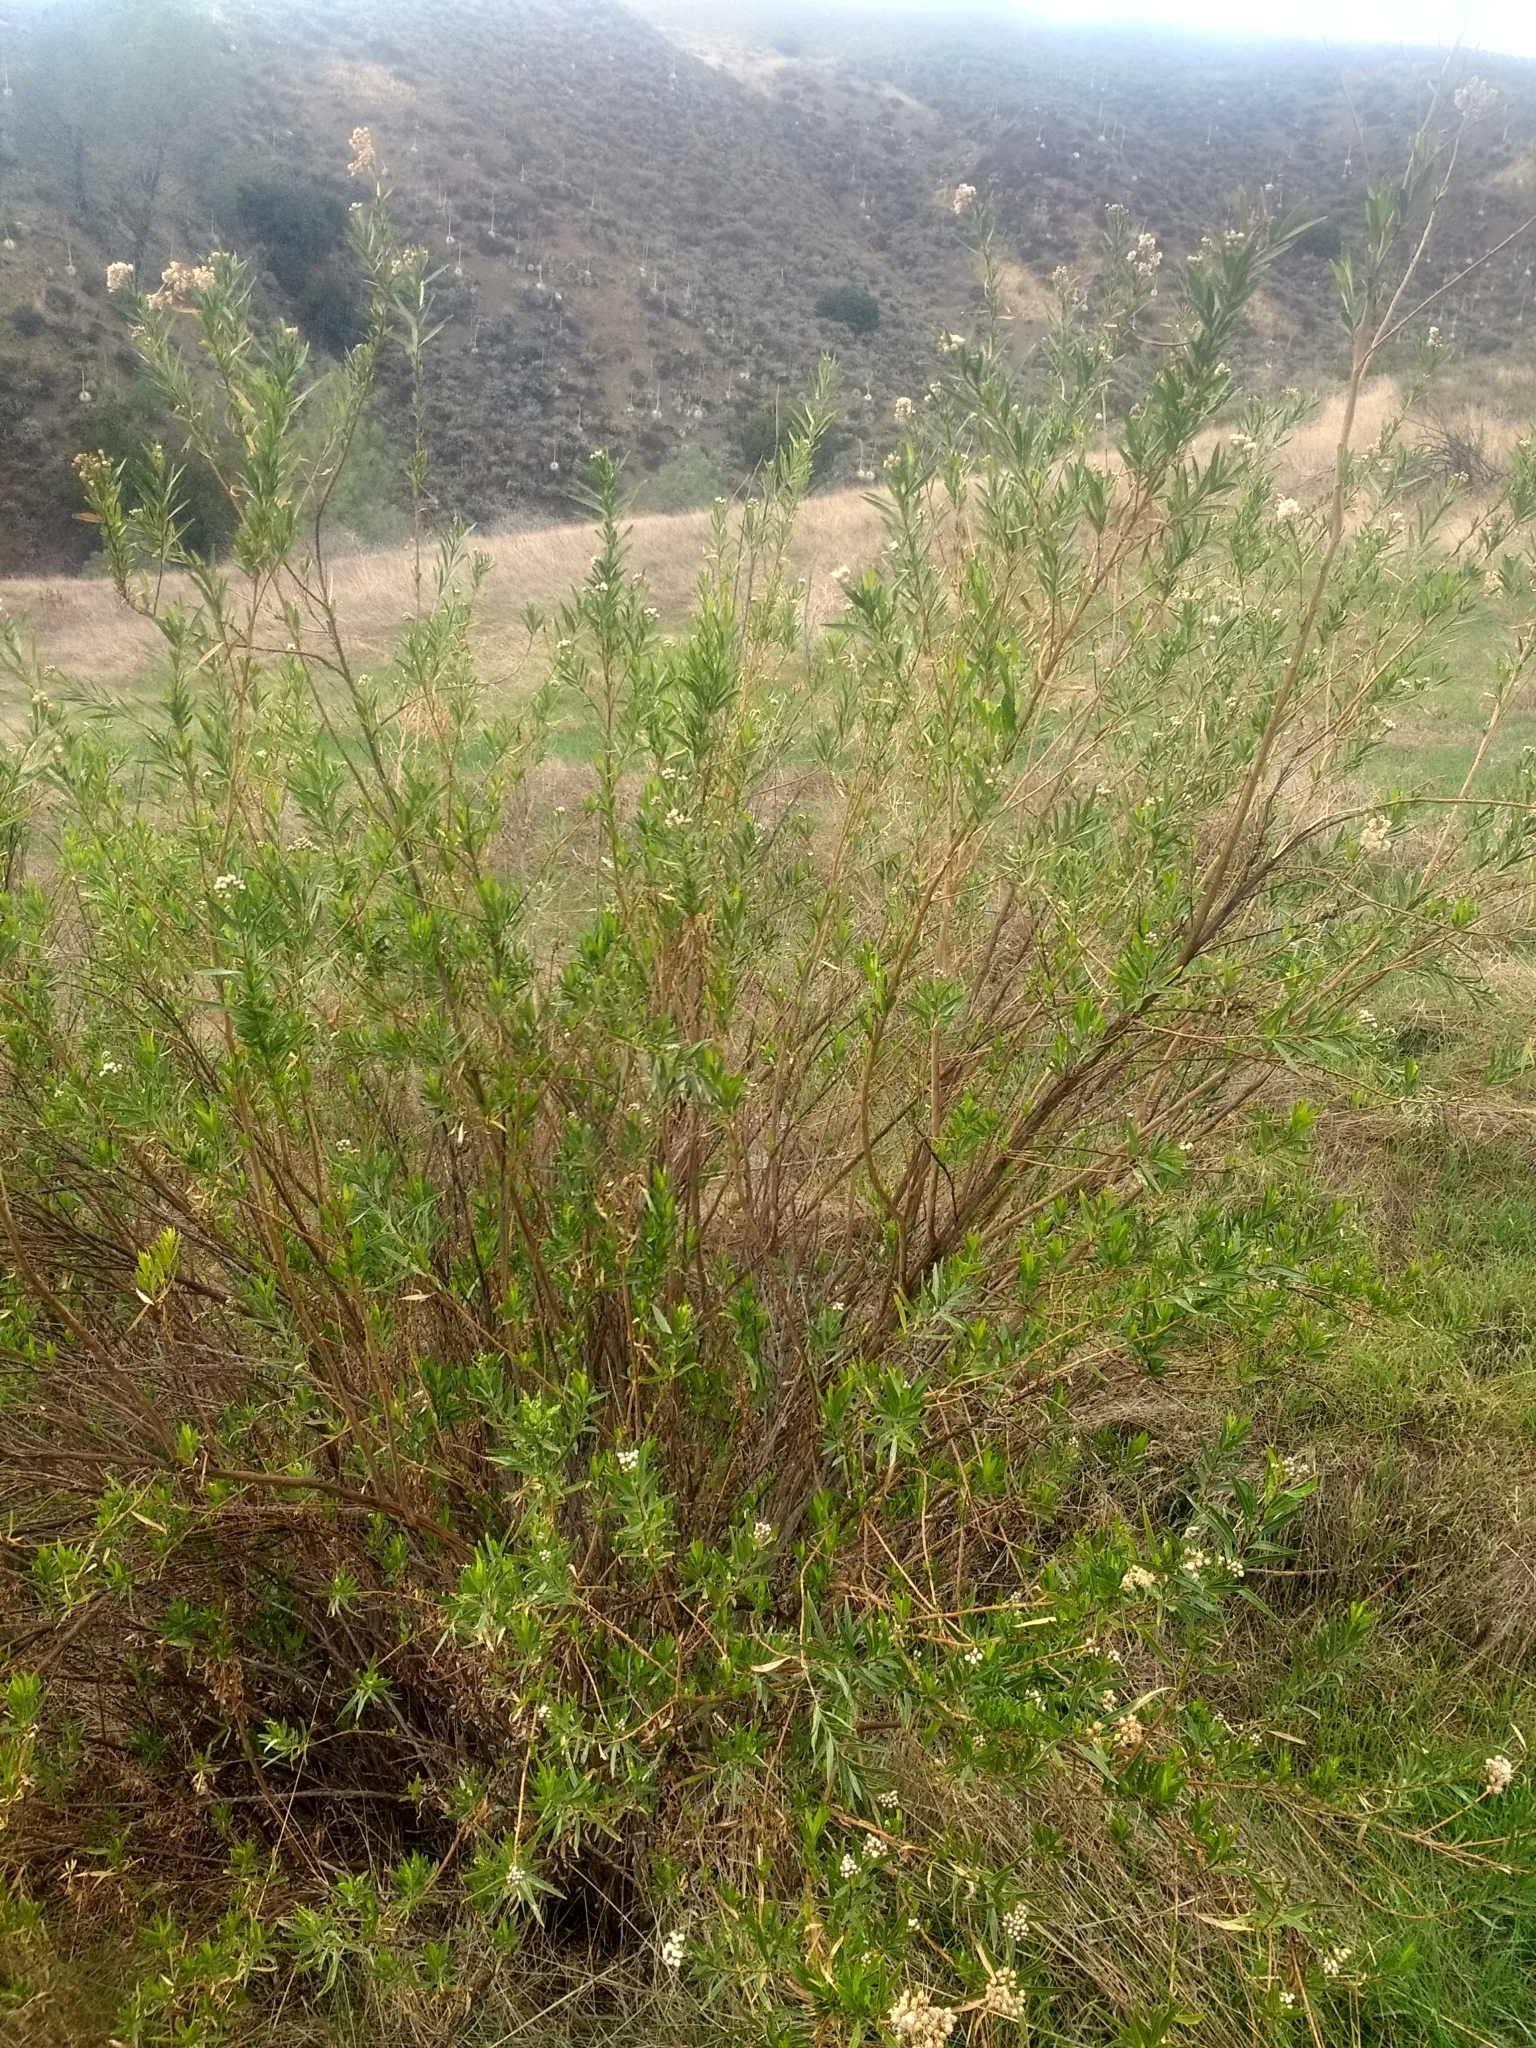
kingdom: Plantae
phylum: Tracheophyta
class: Magnoliopsida
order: Asterales
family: Asteraceae
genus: Baccharis
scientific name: Baccharis salicifolia
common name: Sticky baccharis
